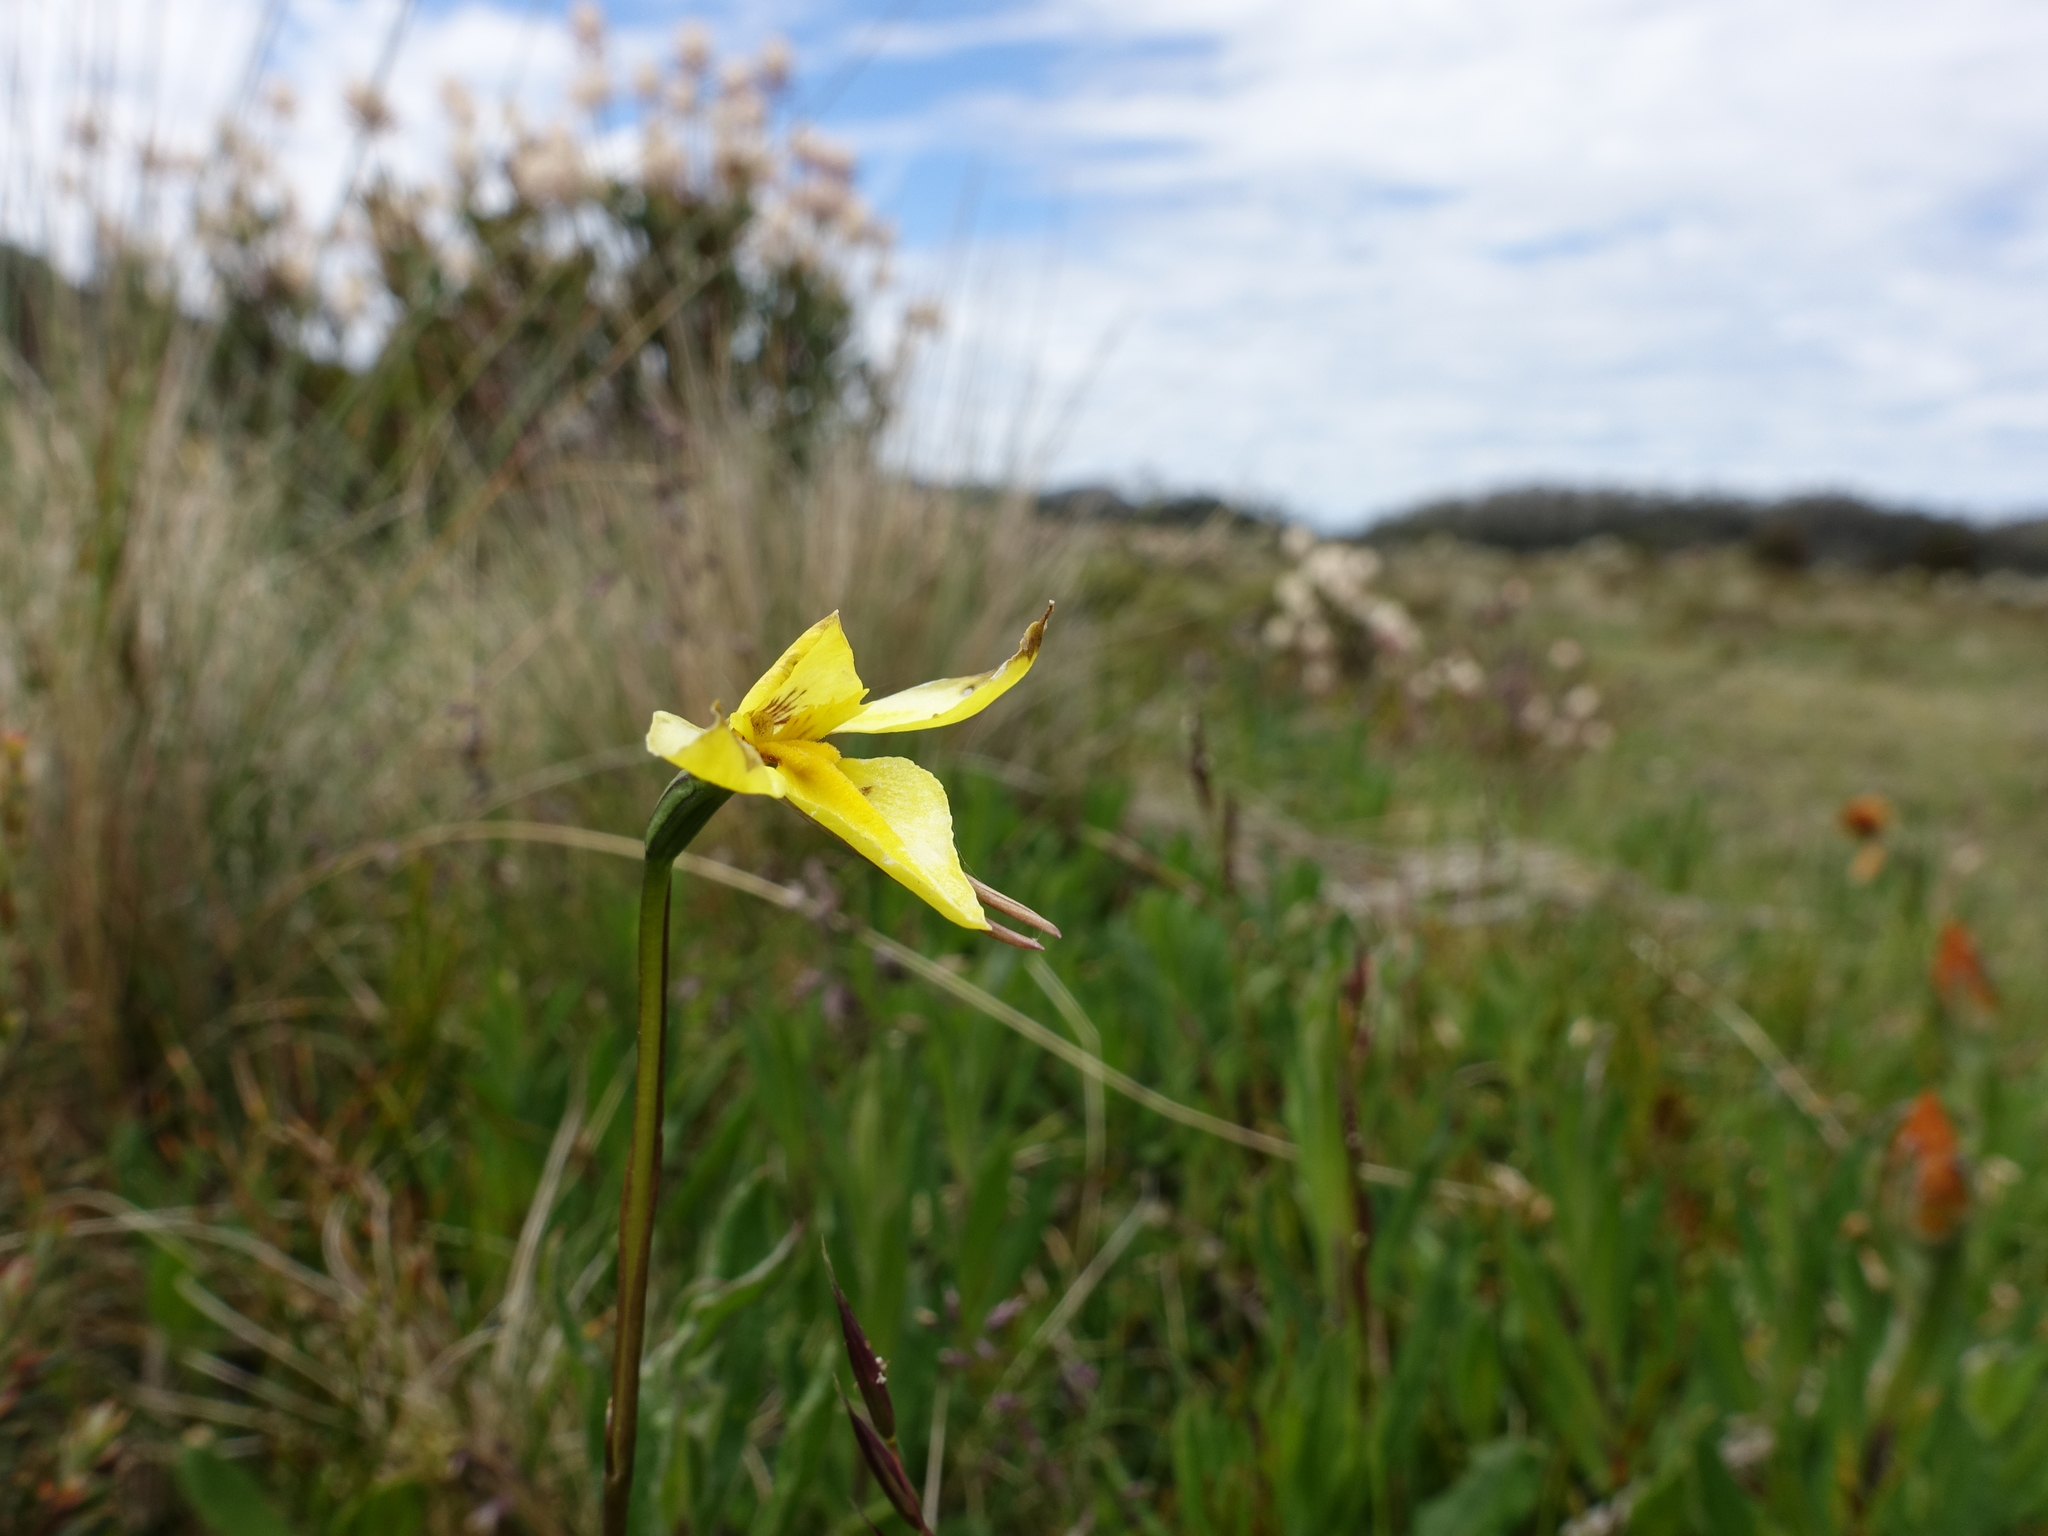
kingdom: Plantae
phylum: Tracheophyta
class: Liliopsida
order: Asparagales
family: Orchidaceae
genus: Diuris
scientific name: Diuris monticola
